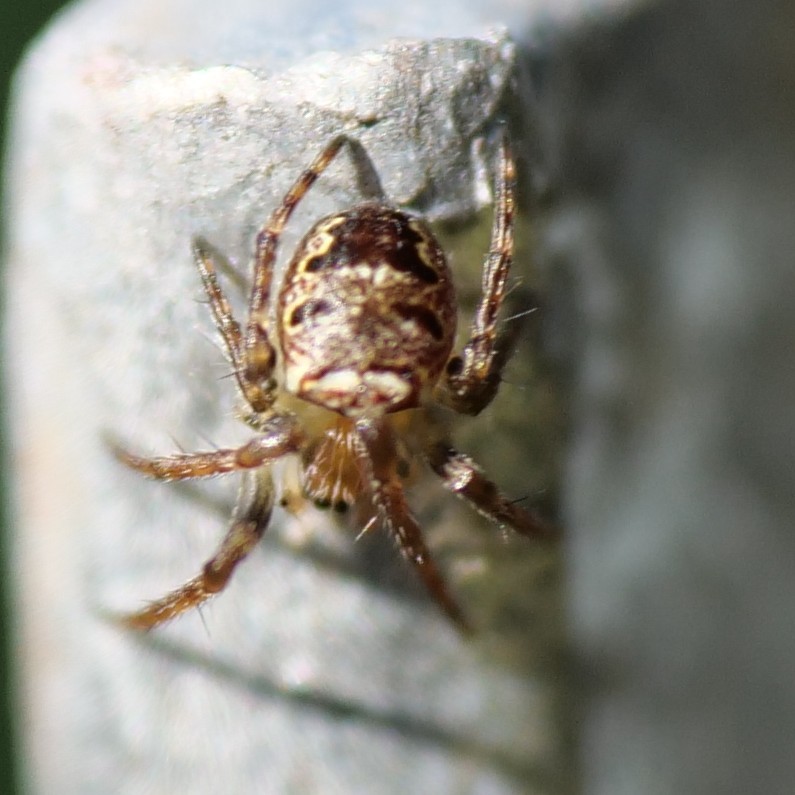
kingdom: Animalia
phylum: Arthropoda
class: Arachnida
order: Araneae
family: Araneidae
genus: Zilla
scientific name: Zilla diodia
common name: Zilla diodia
